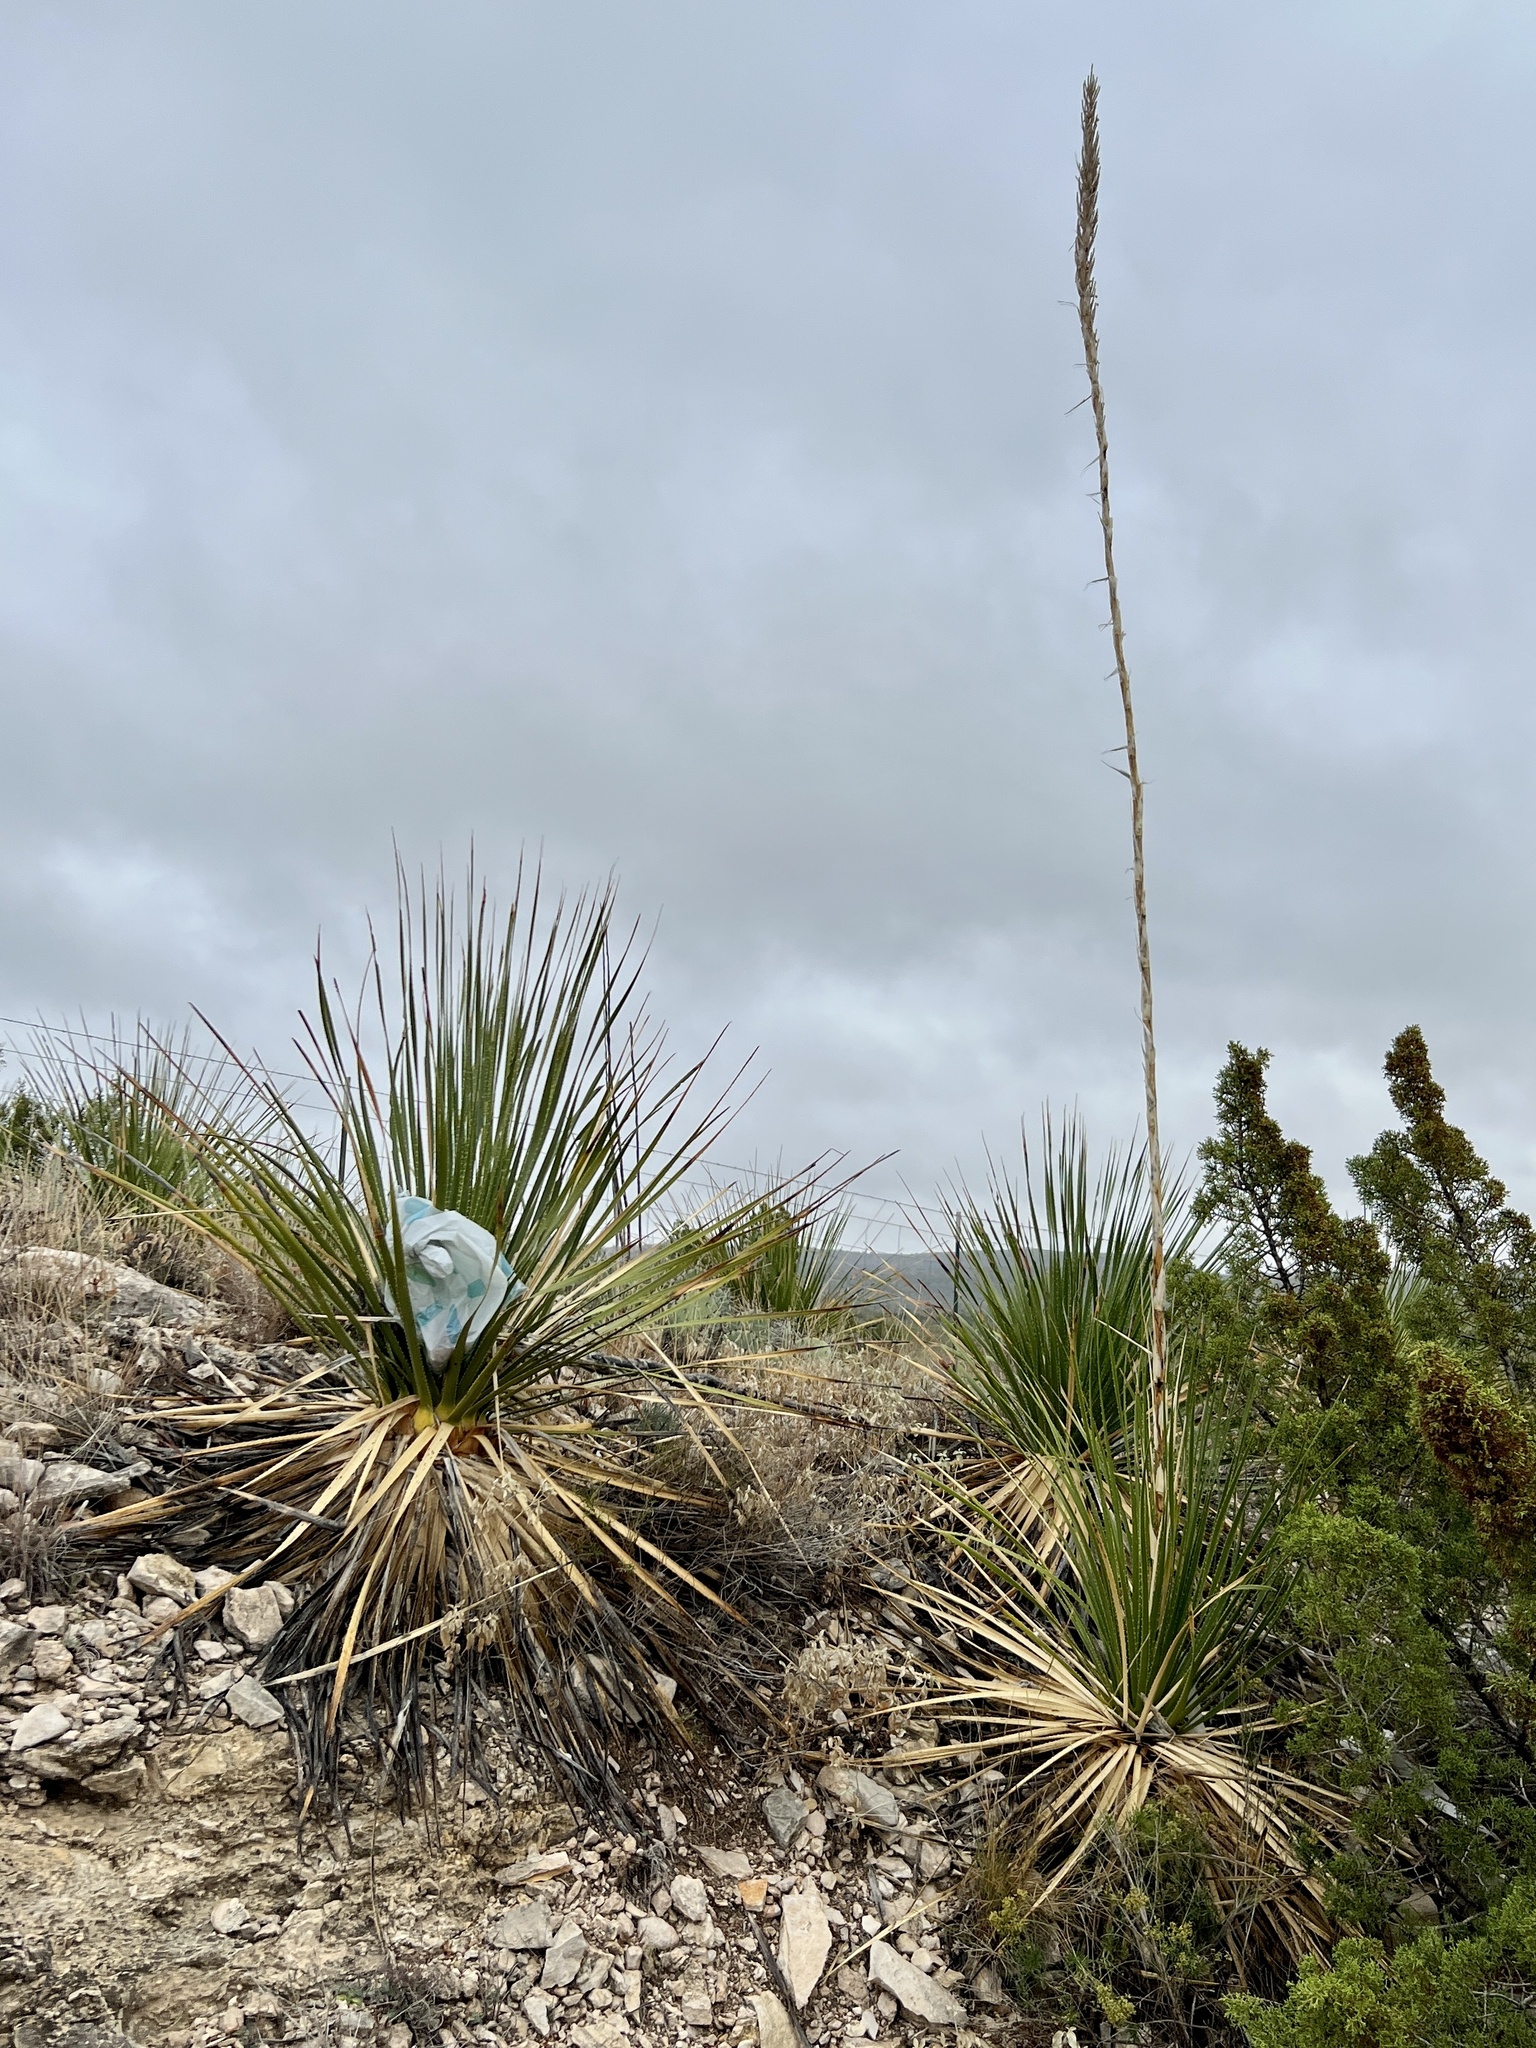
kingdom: Plantae
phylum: Tracheophyta
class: Liliopsida
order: Asparagales
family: Asparagaceae
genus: Dasylirion
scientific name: Dasylirion texanum
